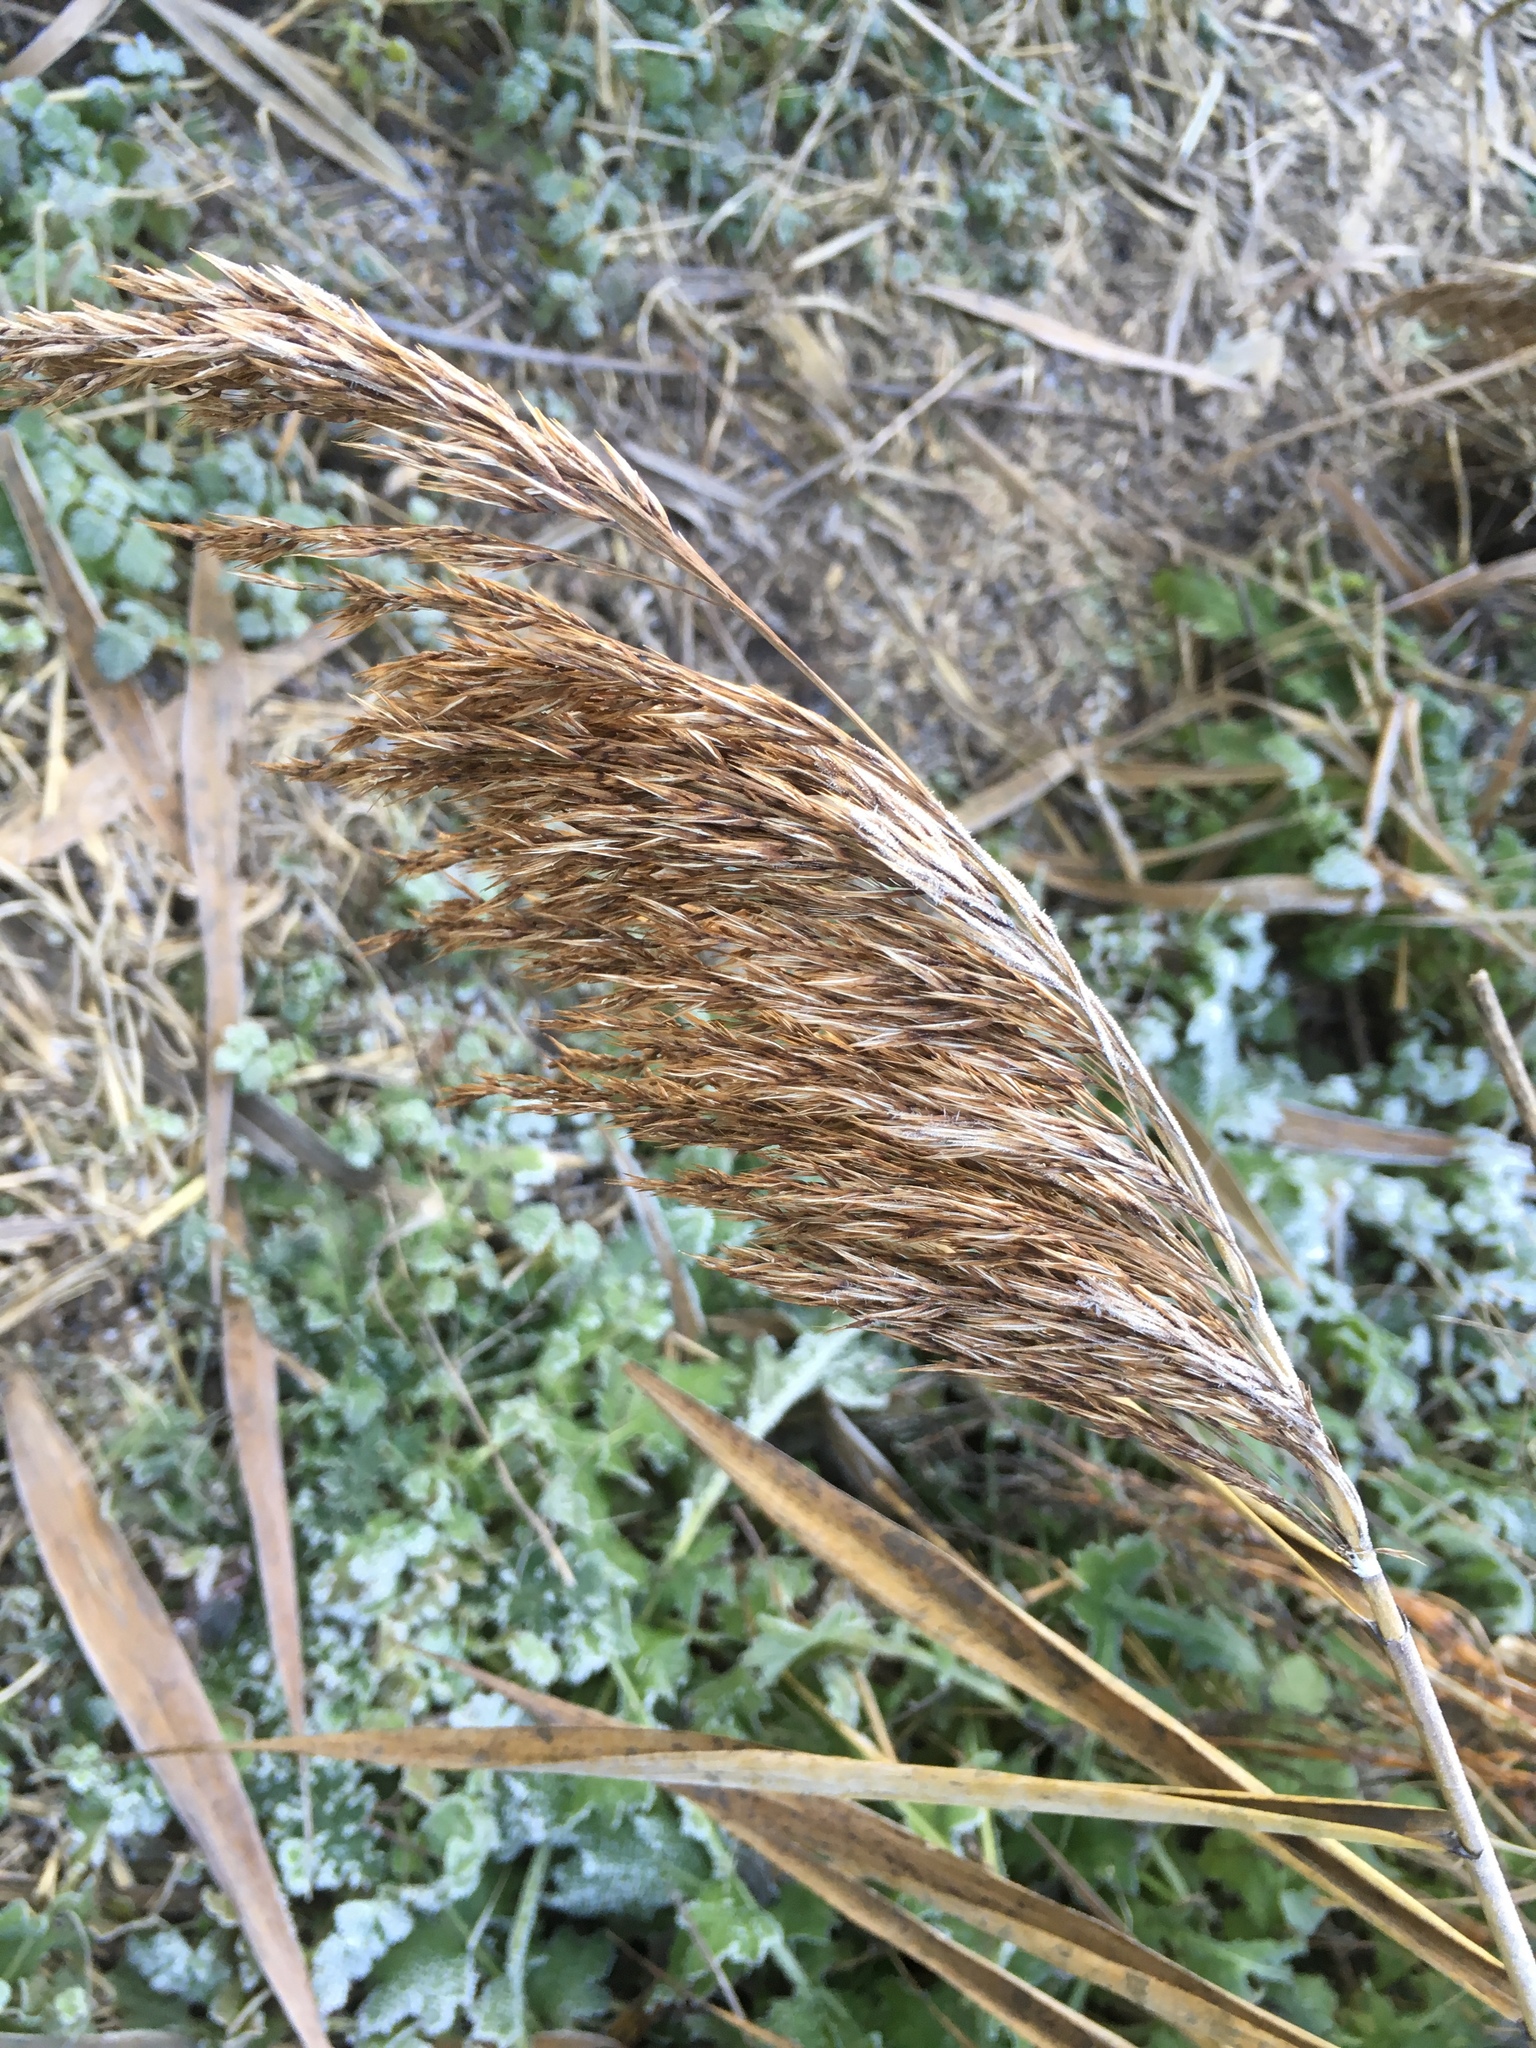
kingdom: Plantae
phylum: Tracheophyta
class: Liliopsida
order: Poales
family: Poaceae
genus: Phragmites
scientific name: Phragmites australis
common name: Common reed
